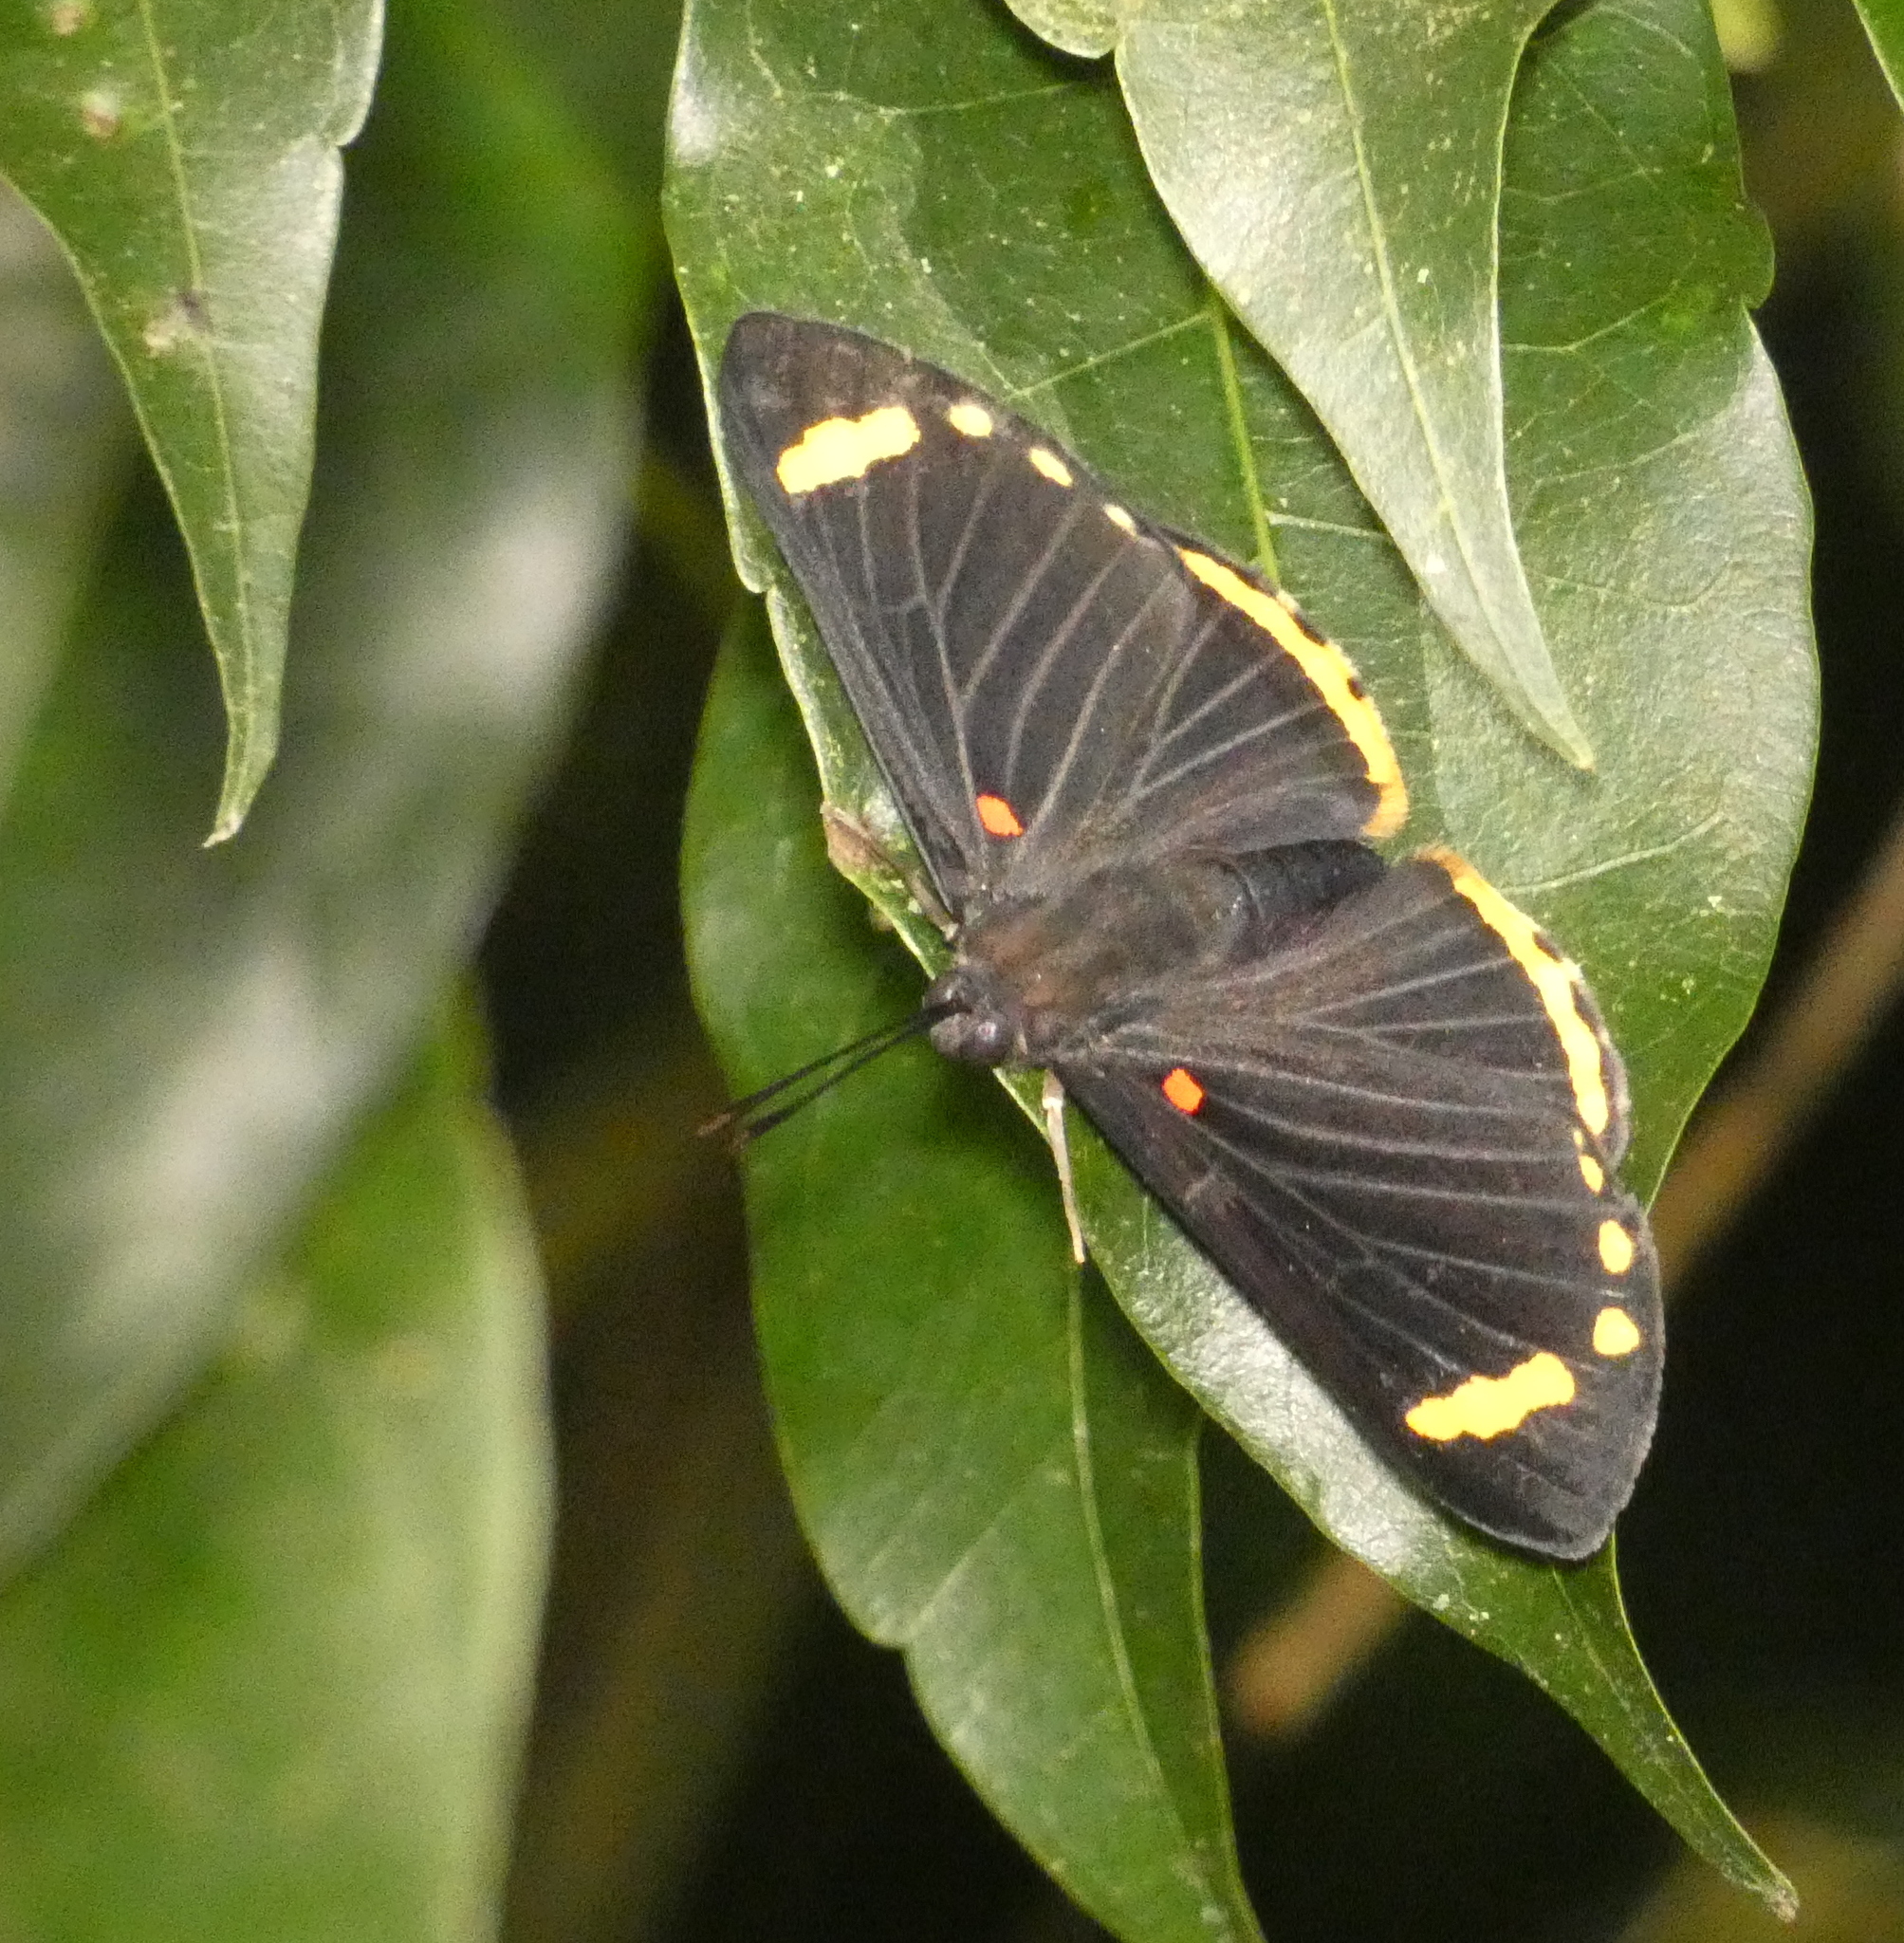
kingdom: Animalia
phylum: Arthropoda
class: Insecta
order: Lepidoptera
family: Lycaenidae
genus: Melanis
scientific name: Melanis xenia
